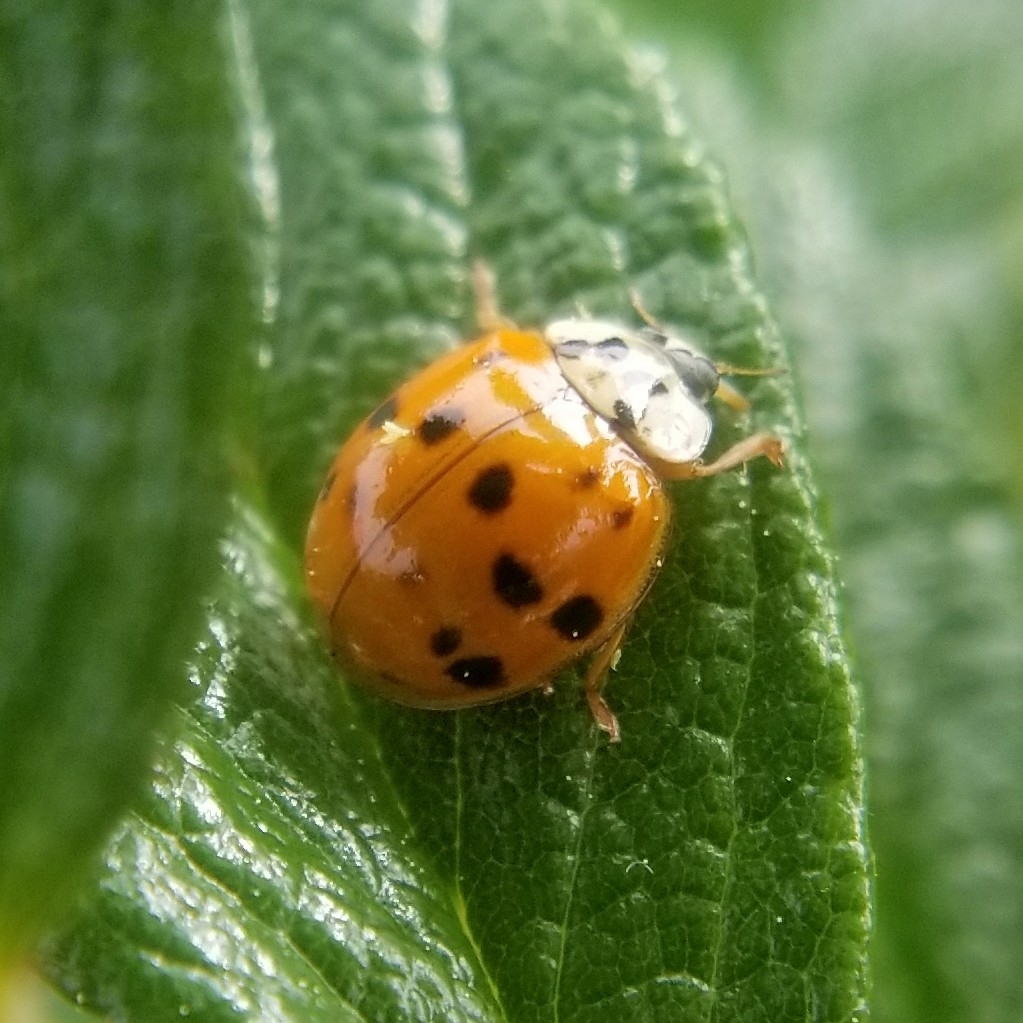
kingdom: Animalia
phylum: Arthropoda
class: Insecta
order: Coleoptera
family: Coccinellidae
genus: Harmonia
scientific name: Harmonia axyridis
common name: Harlequin ladybird
